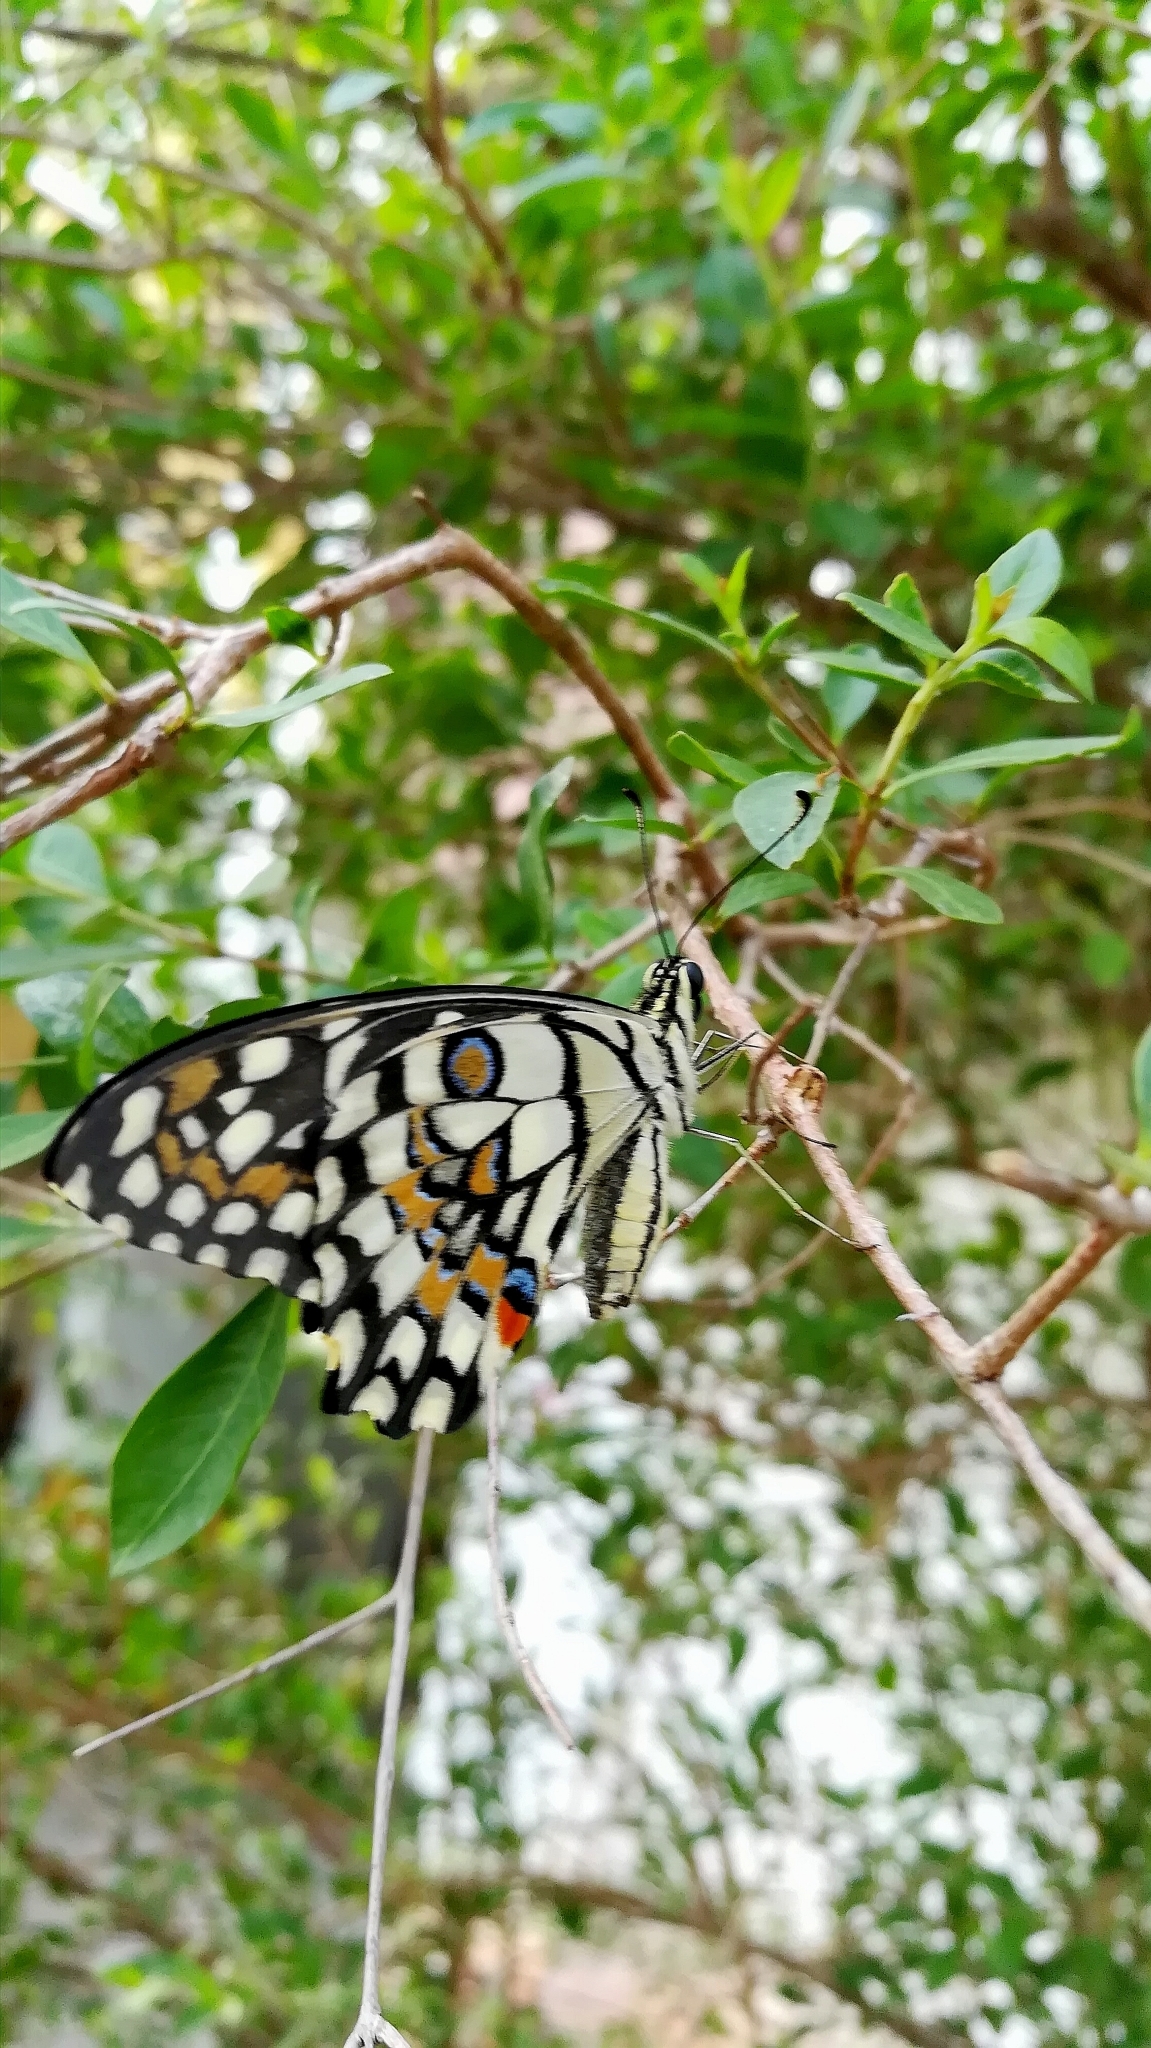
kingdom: Animalia
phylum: Arthropoda
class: Insecta
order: Lepidoptera
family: Papilionidae
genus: Papilio
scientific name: Papilio demoleus
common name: Lime butterfly
